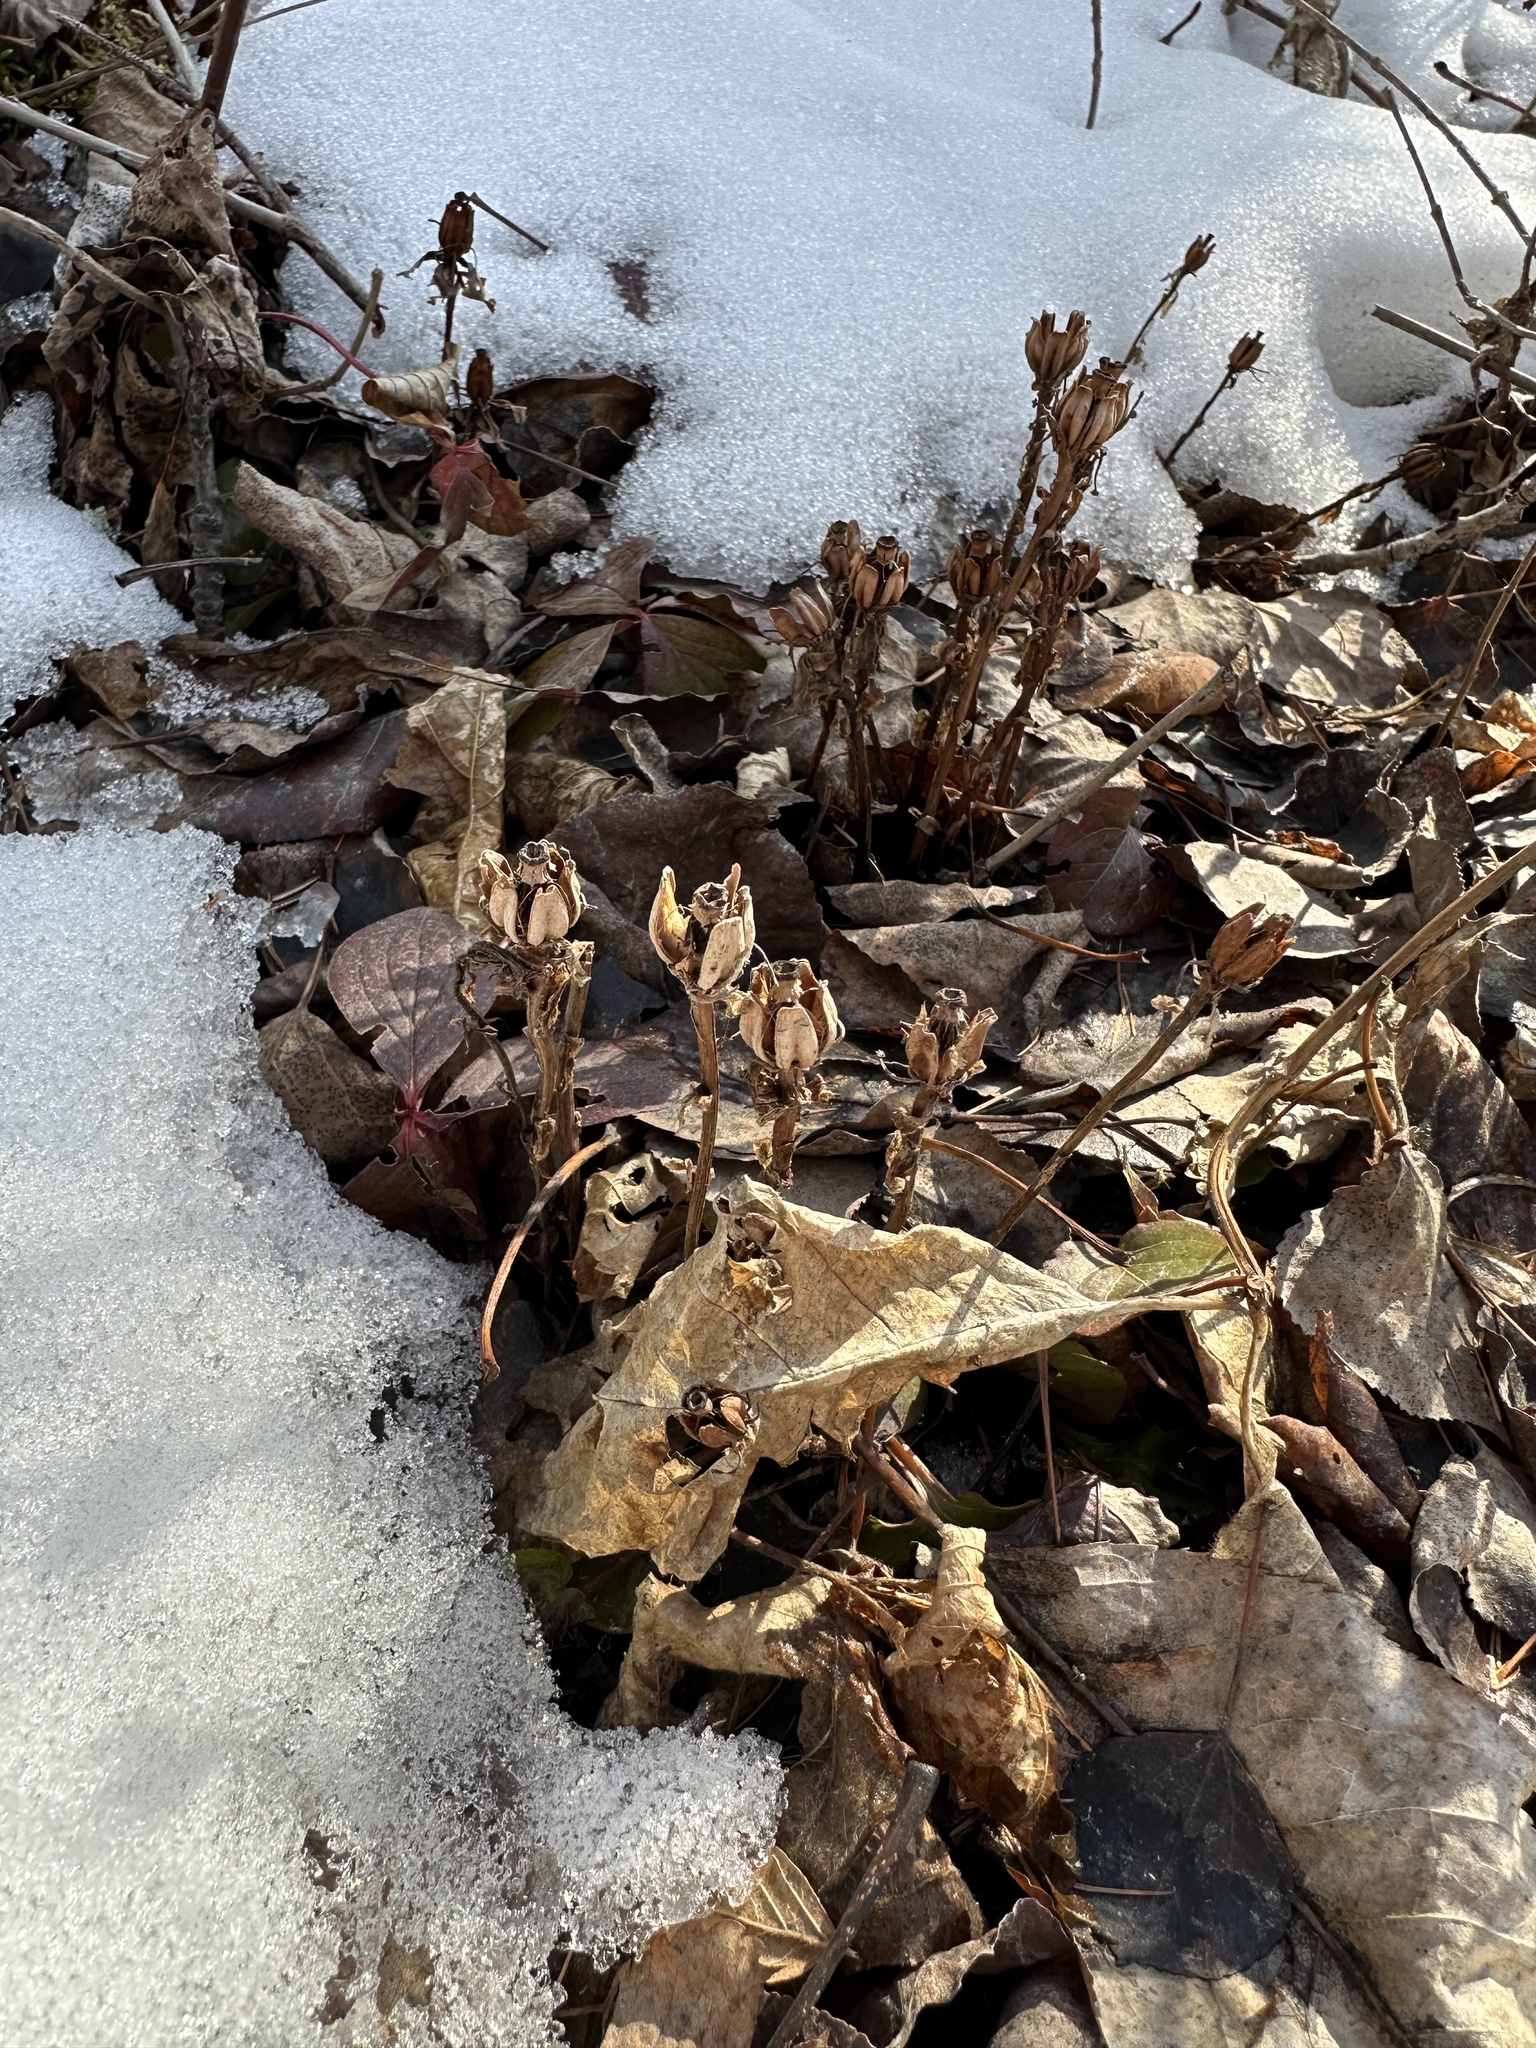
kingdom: Plantae
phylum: Tracheophyta
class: Magnoliopsida
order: Ericales
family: Ericaceae
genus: Monotropa
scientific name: Monotropa uniflora
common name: Convulsion root
